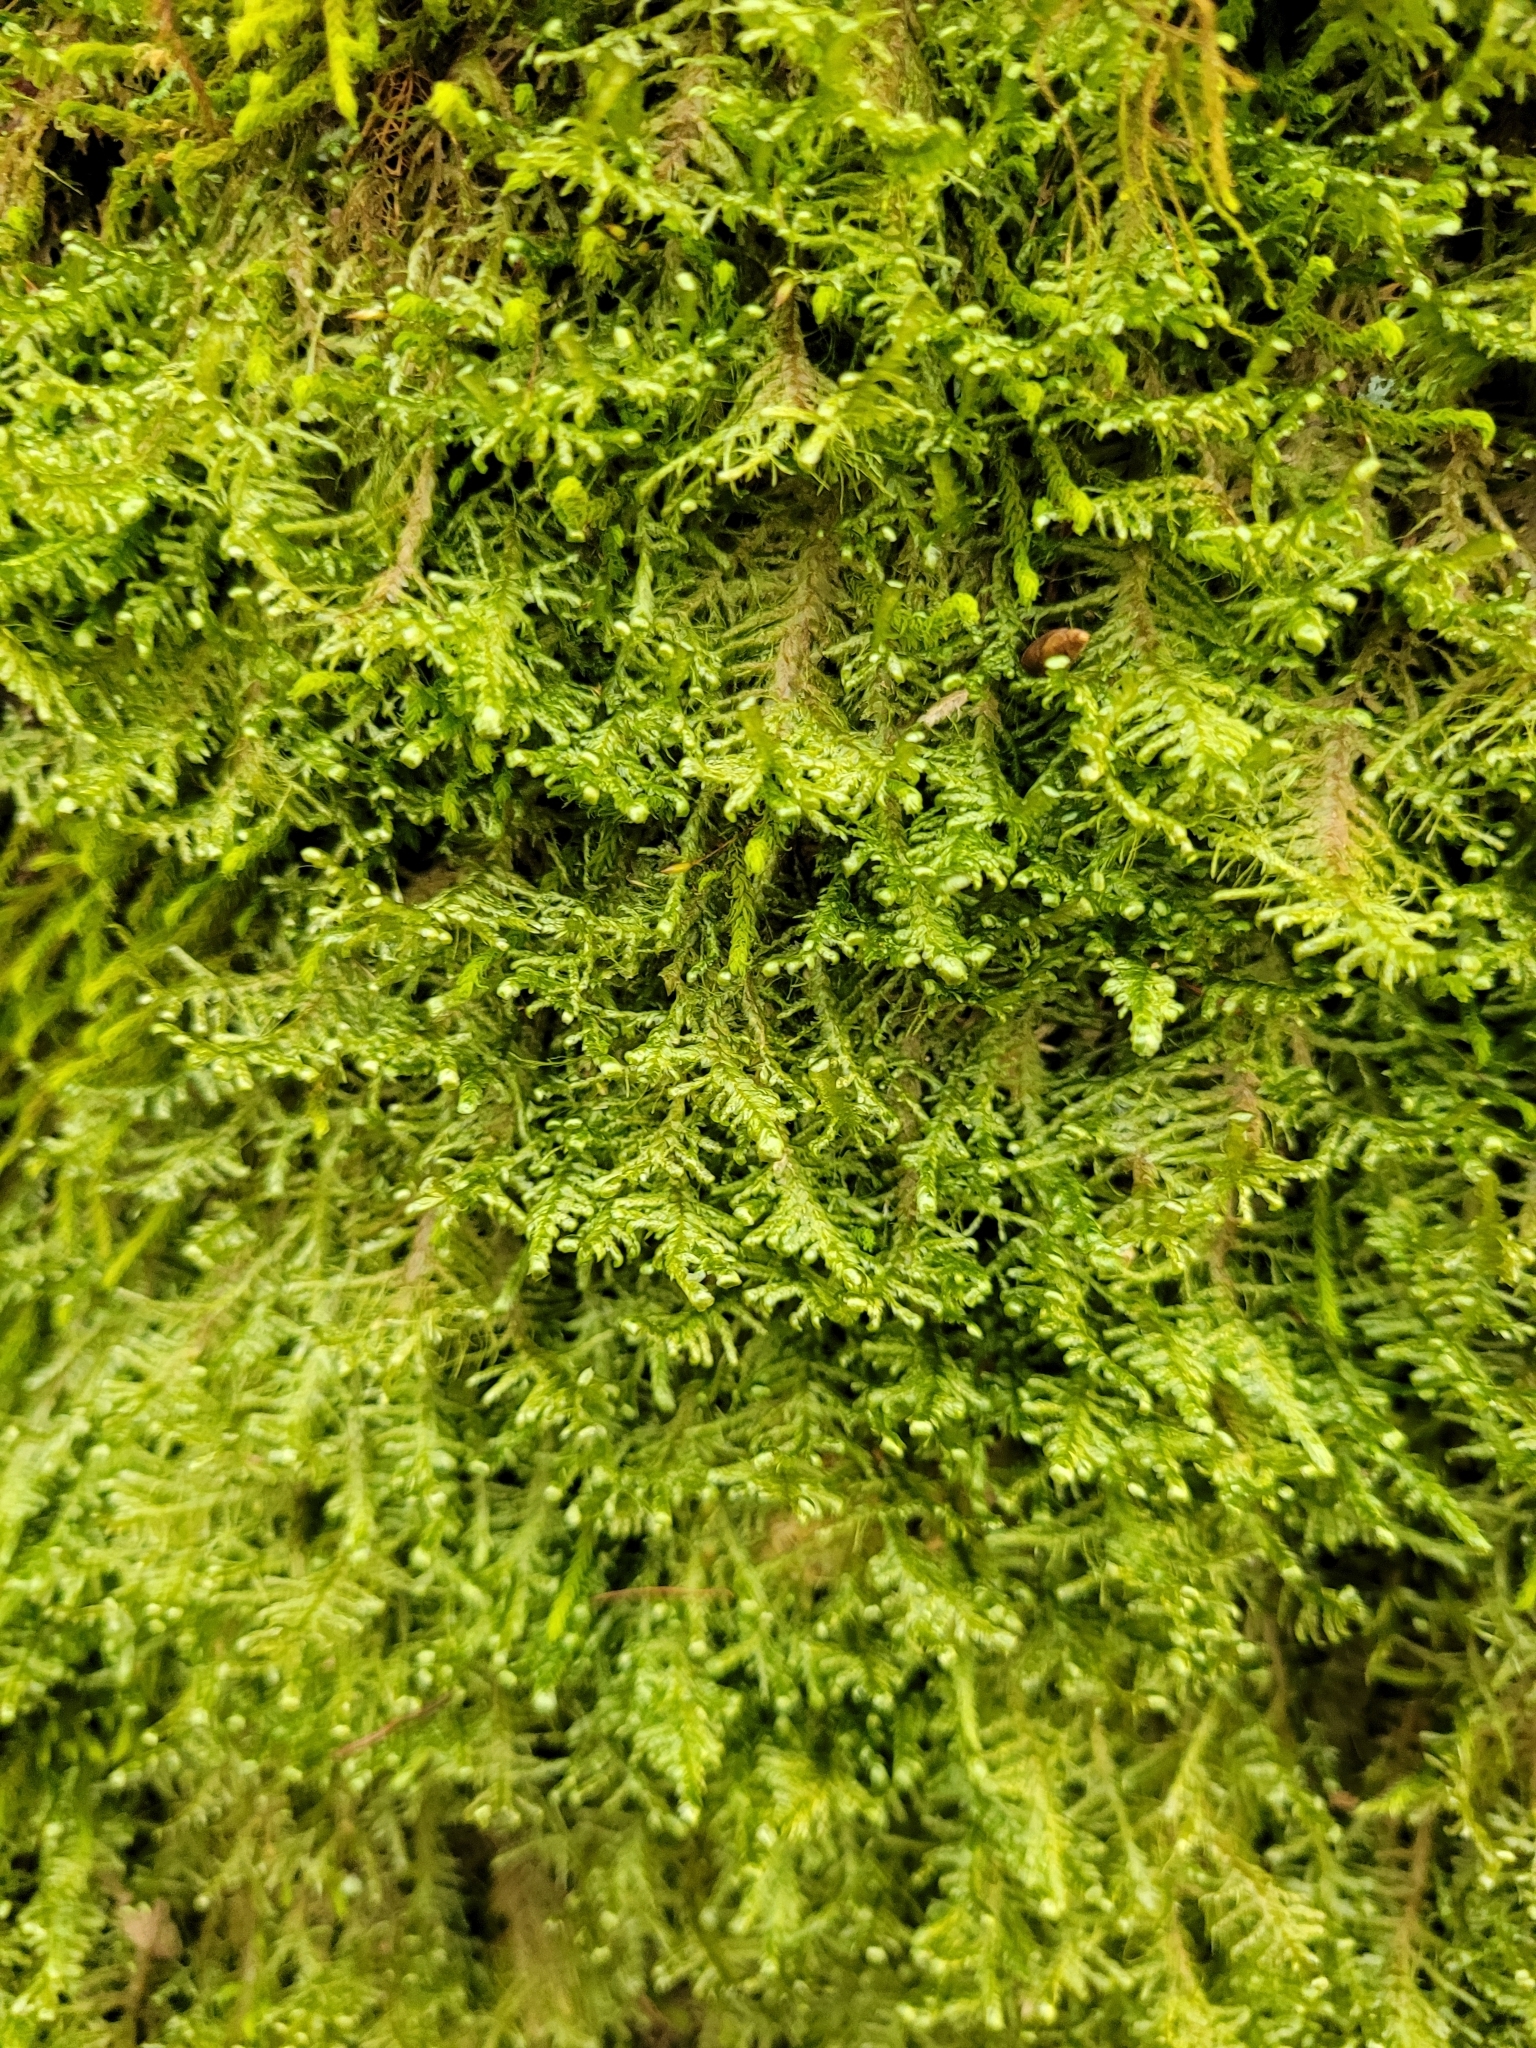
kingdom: Plantae
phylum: Bryophyta
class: Bryopsida
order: Hypnales
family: Neckeraceae
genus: Alleniella
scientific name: Alleniella complanata
